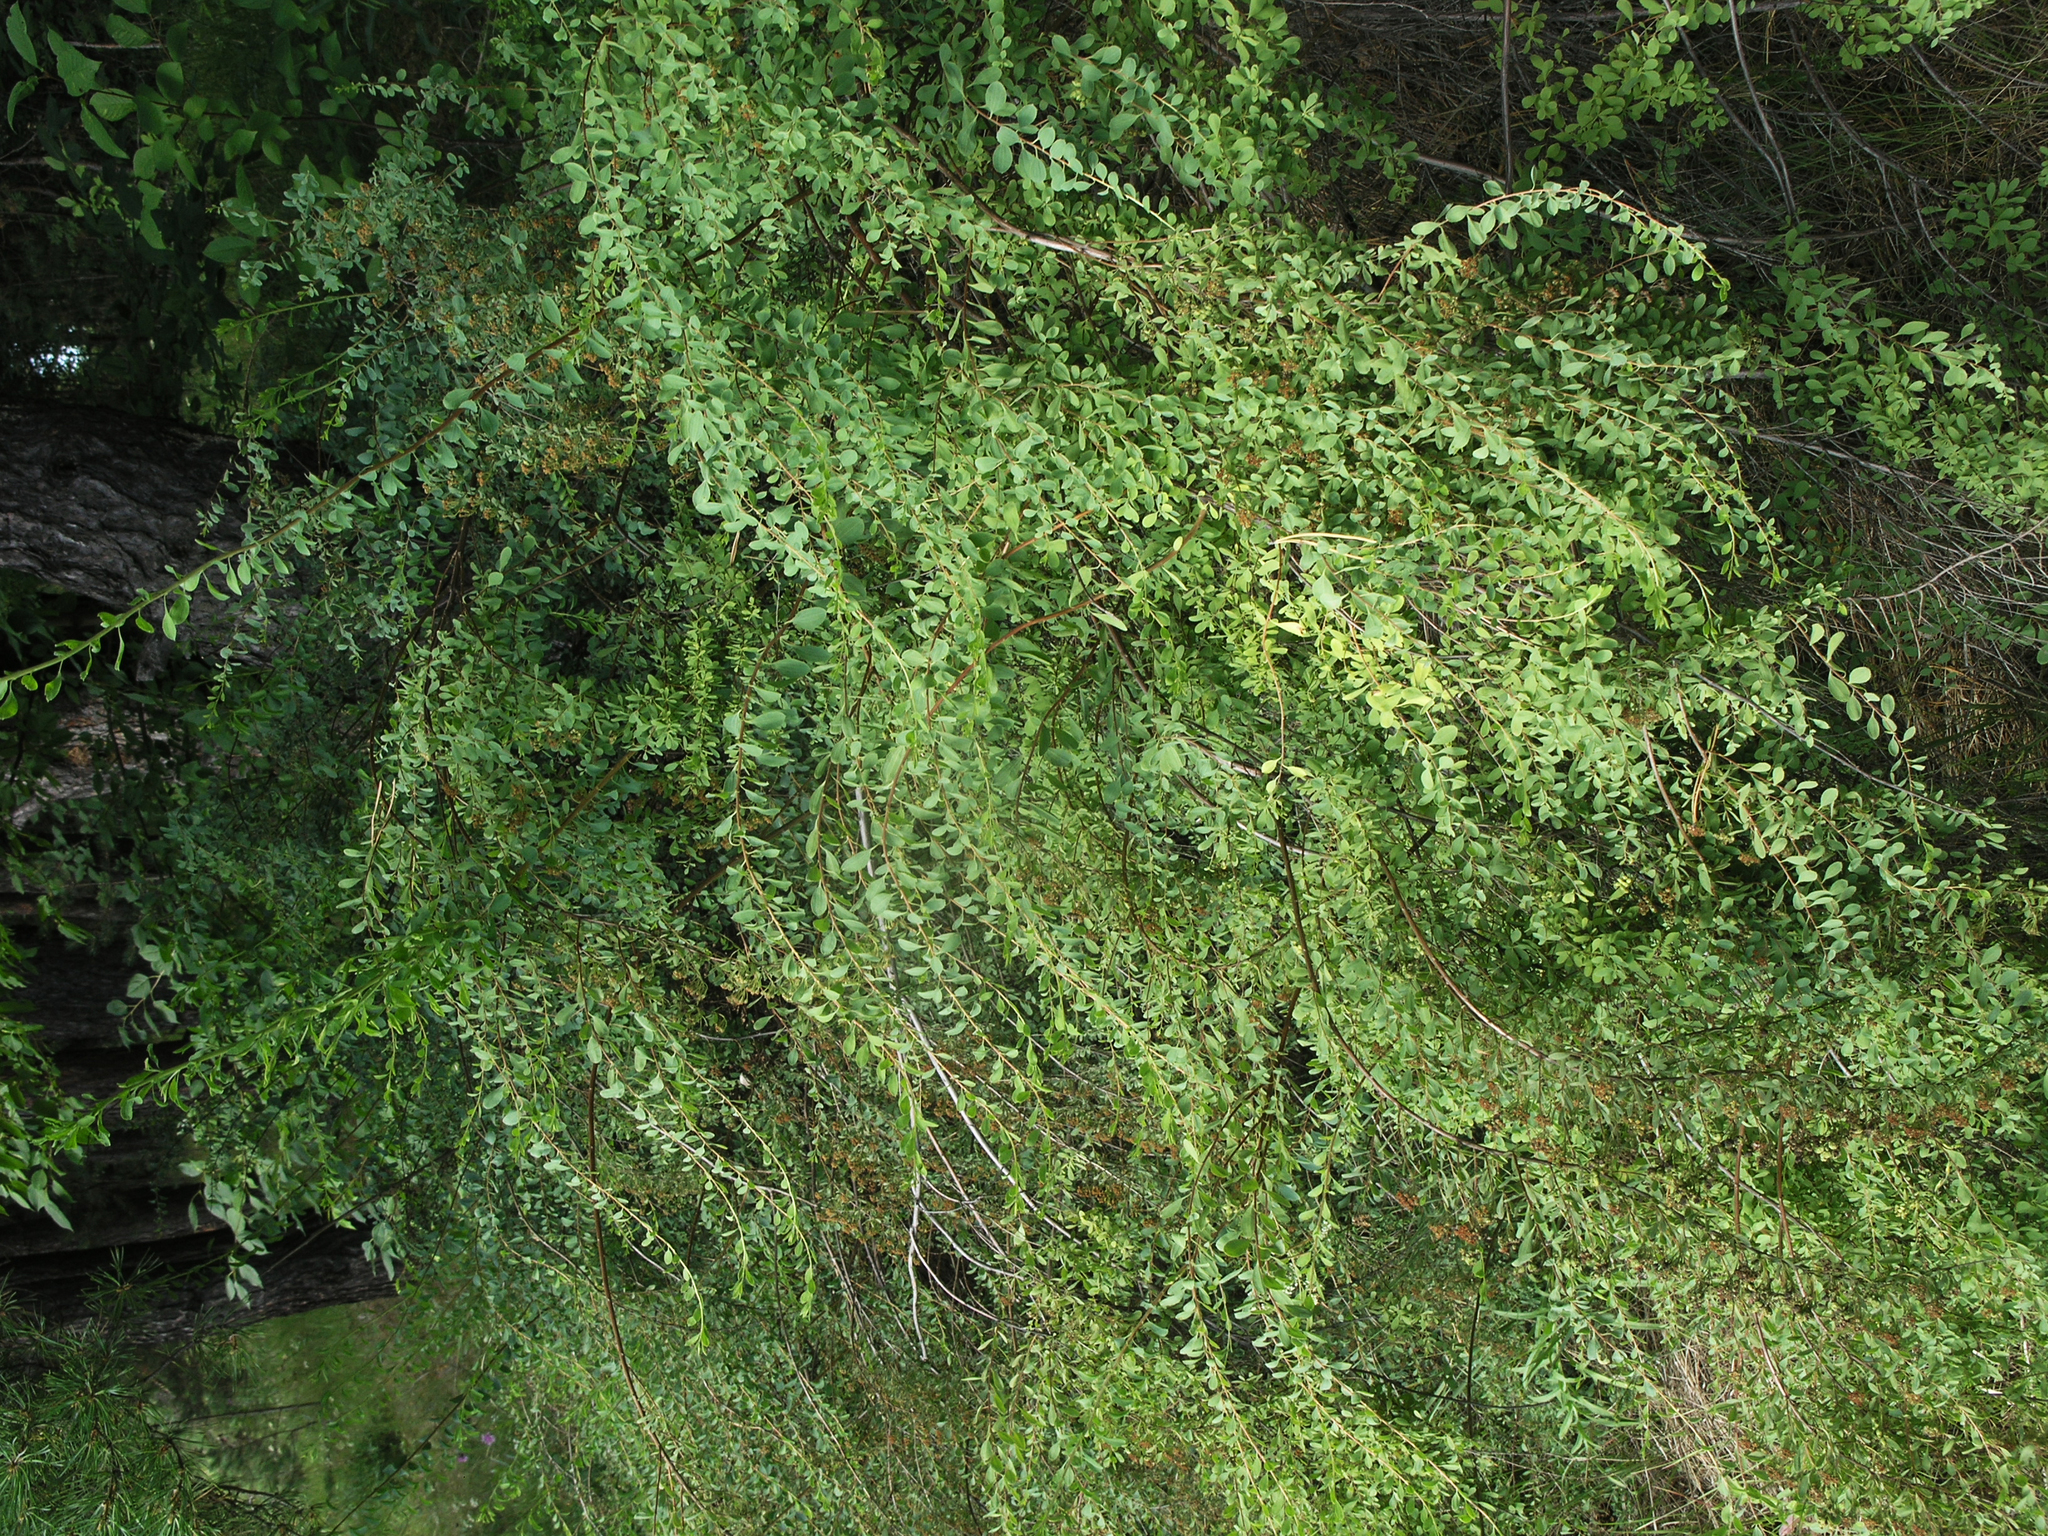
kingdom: Plantae
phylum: Tracheophyta
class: Magnoliopsida
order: Rosales
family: Rosaceae
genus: Spiraea
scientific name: Spiraea crenata
